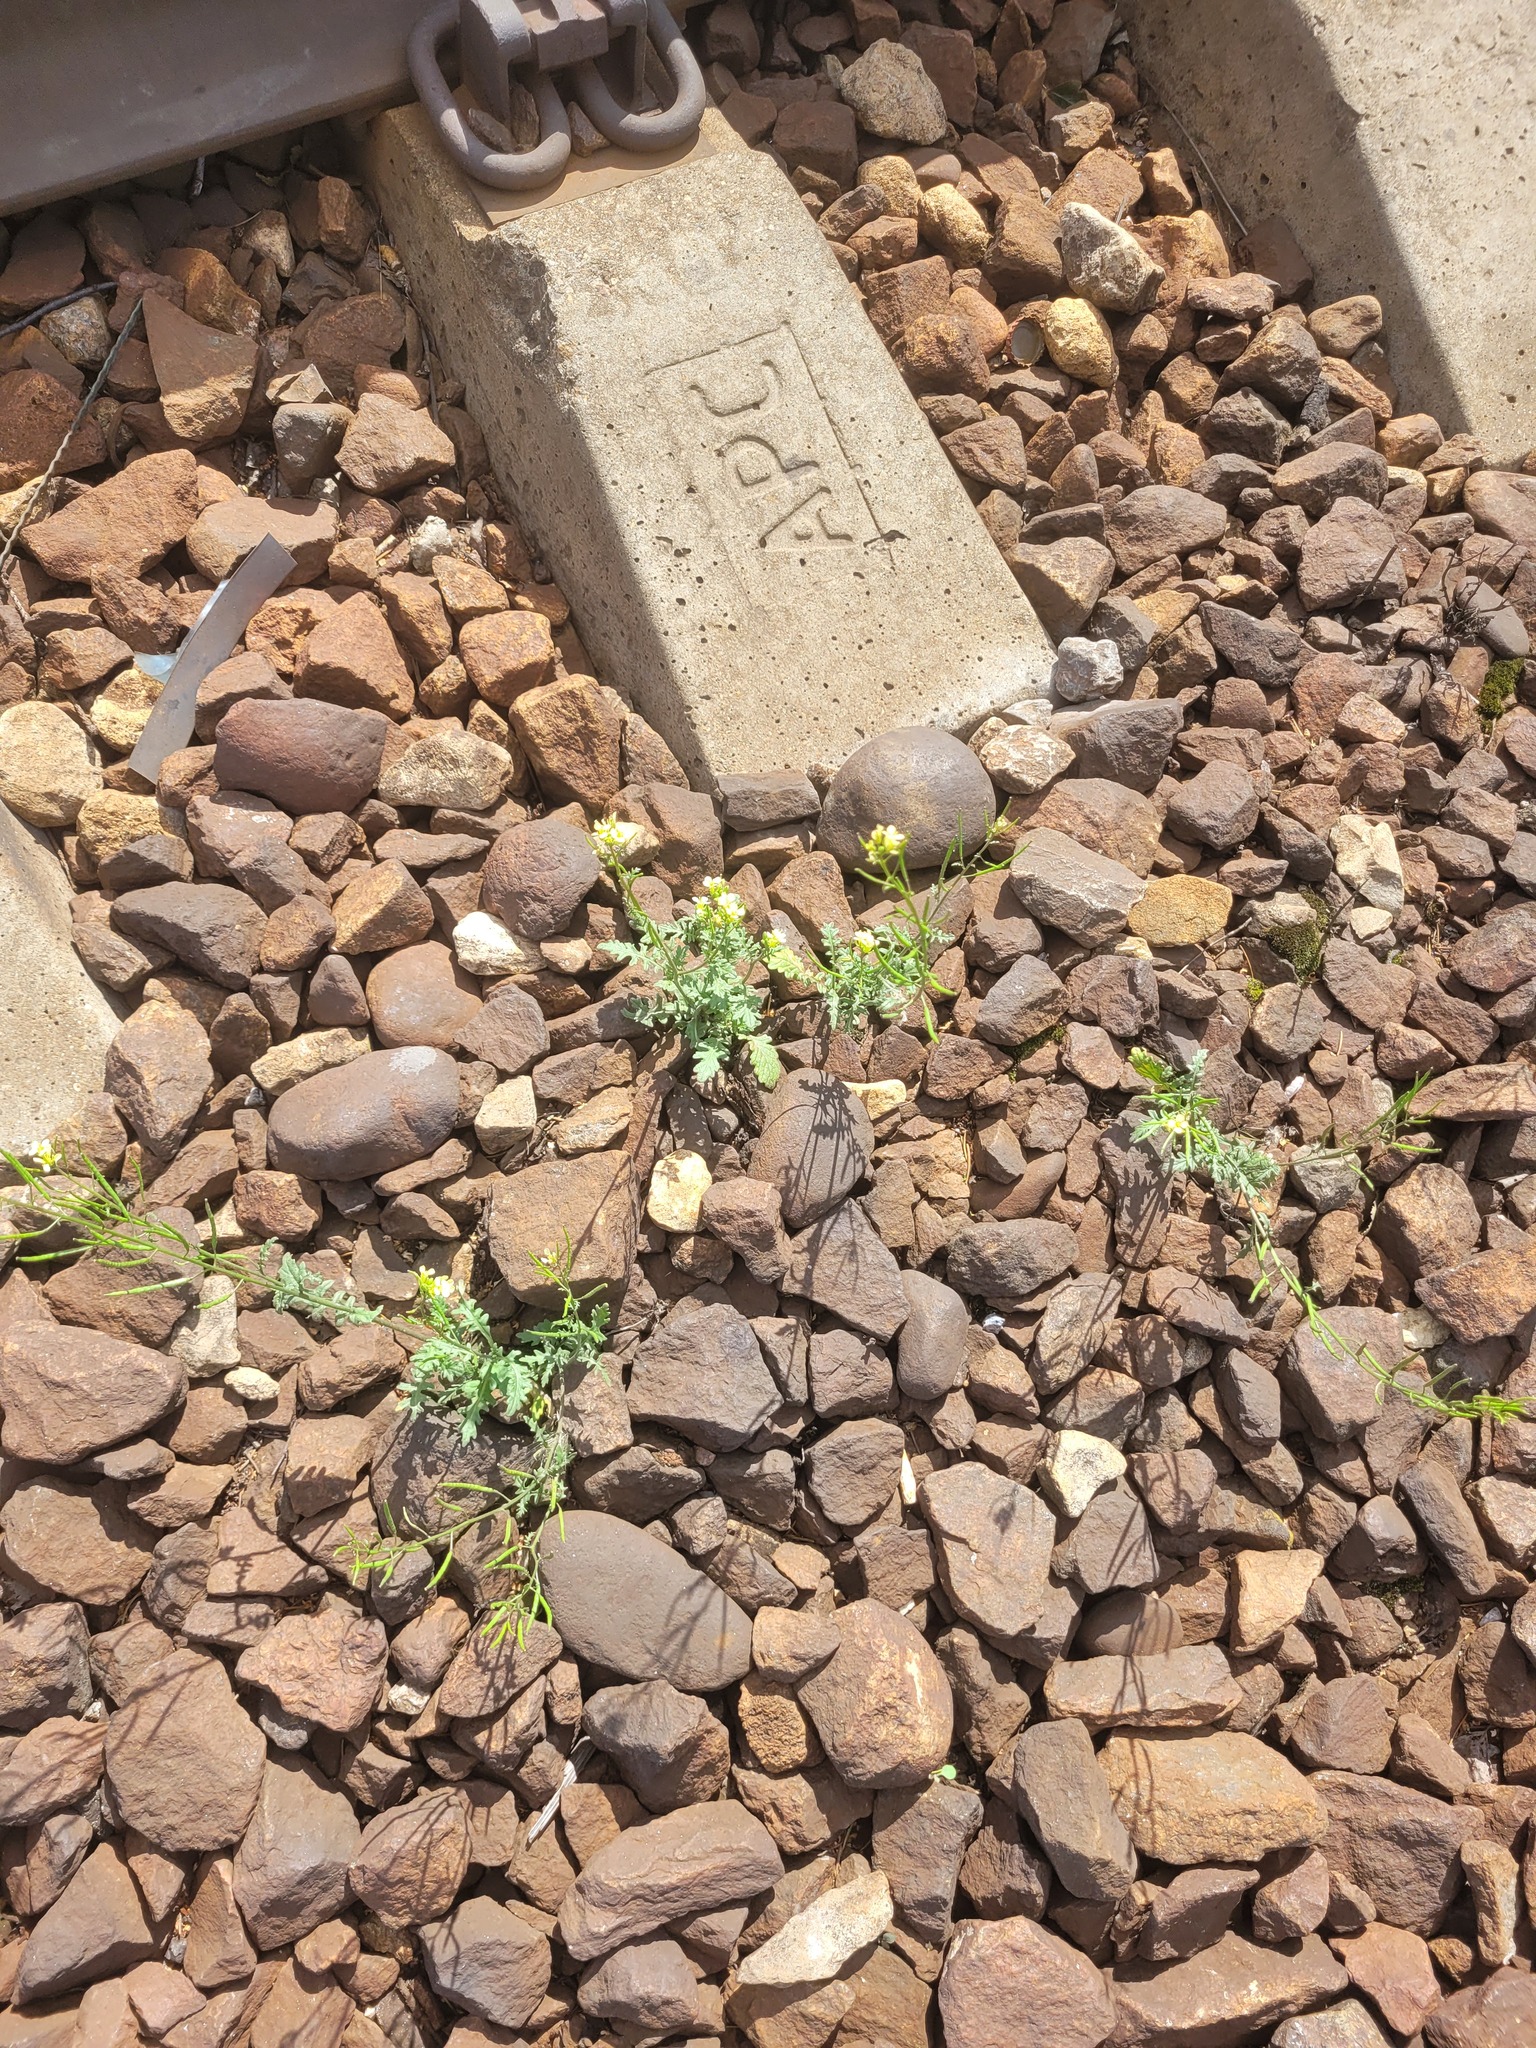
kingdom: Plantae
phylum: Tracheophyta
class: Magnoliopsida
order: Brassicales
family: Brassicaceae
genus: Erucastrum
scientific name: Erucastrum gallicum
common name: Hairy rocket
